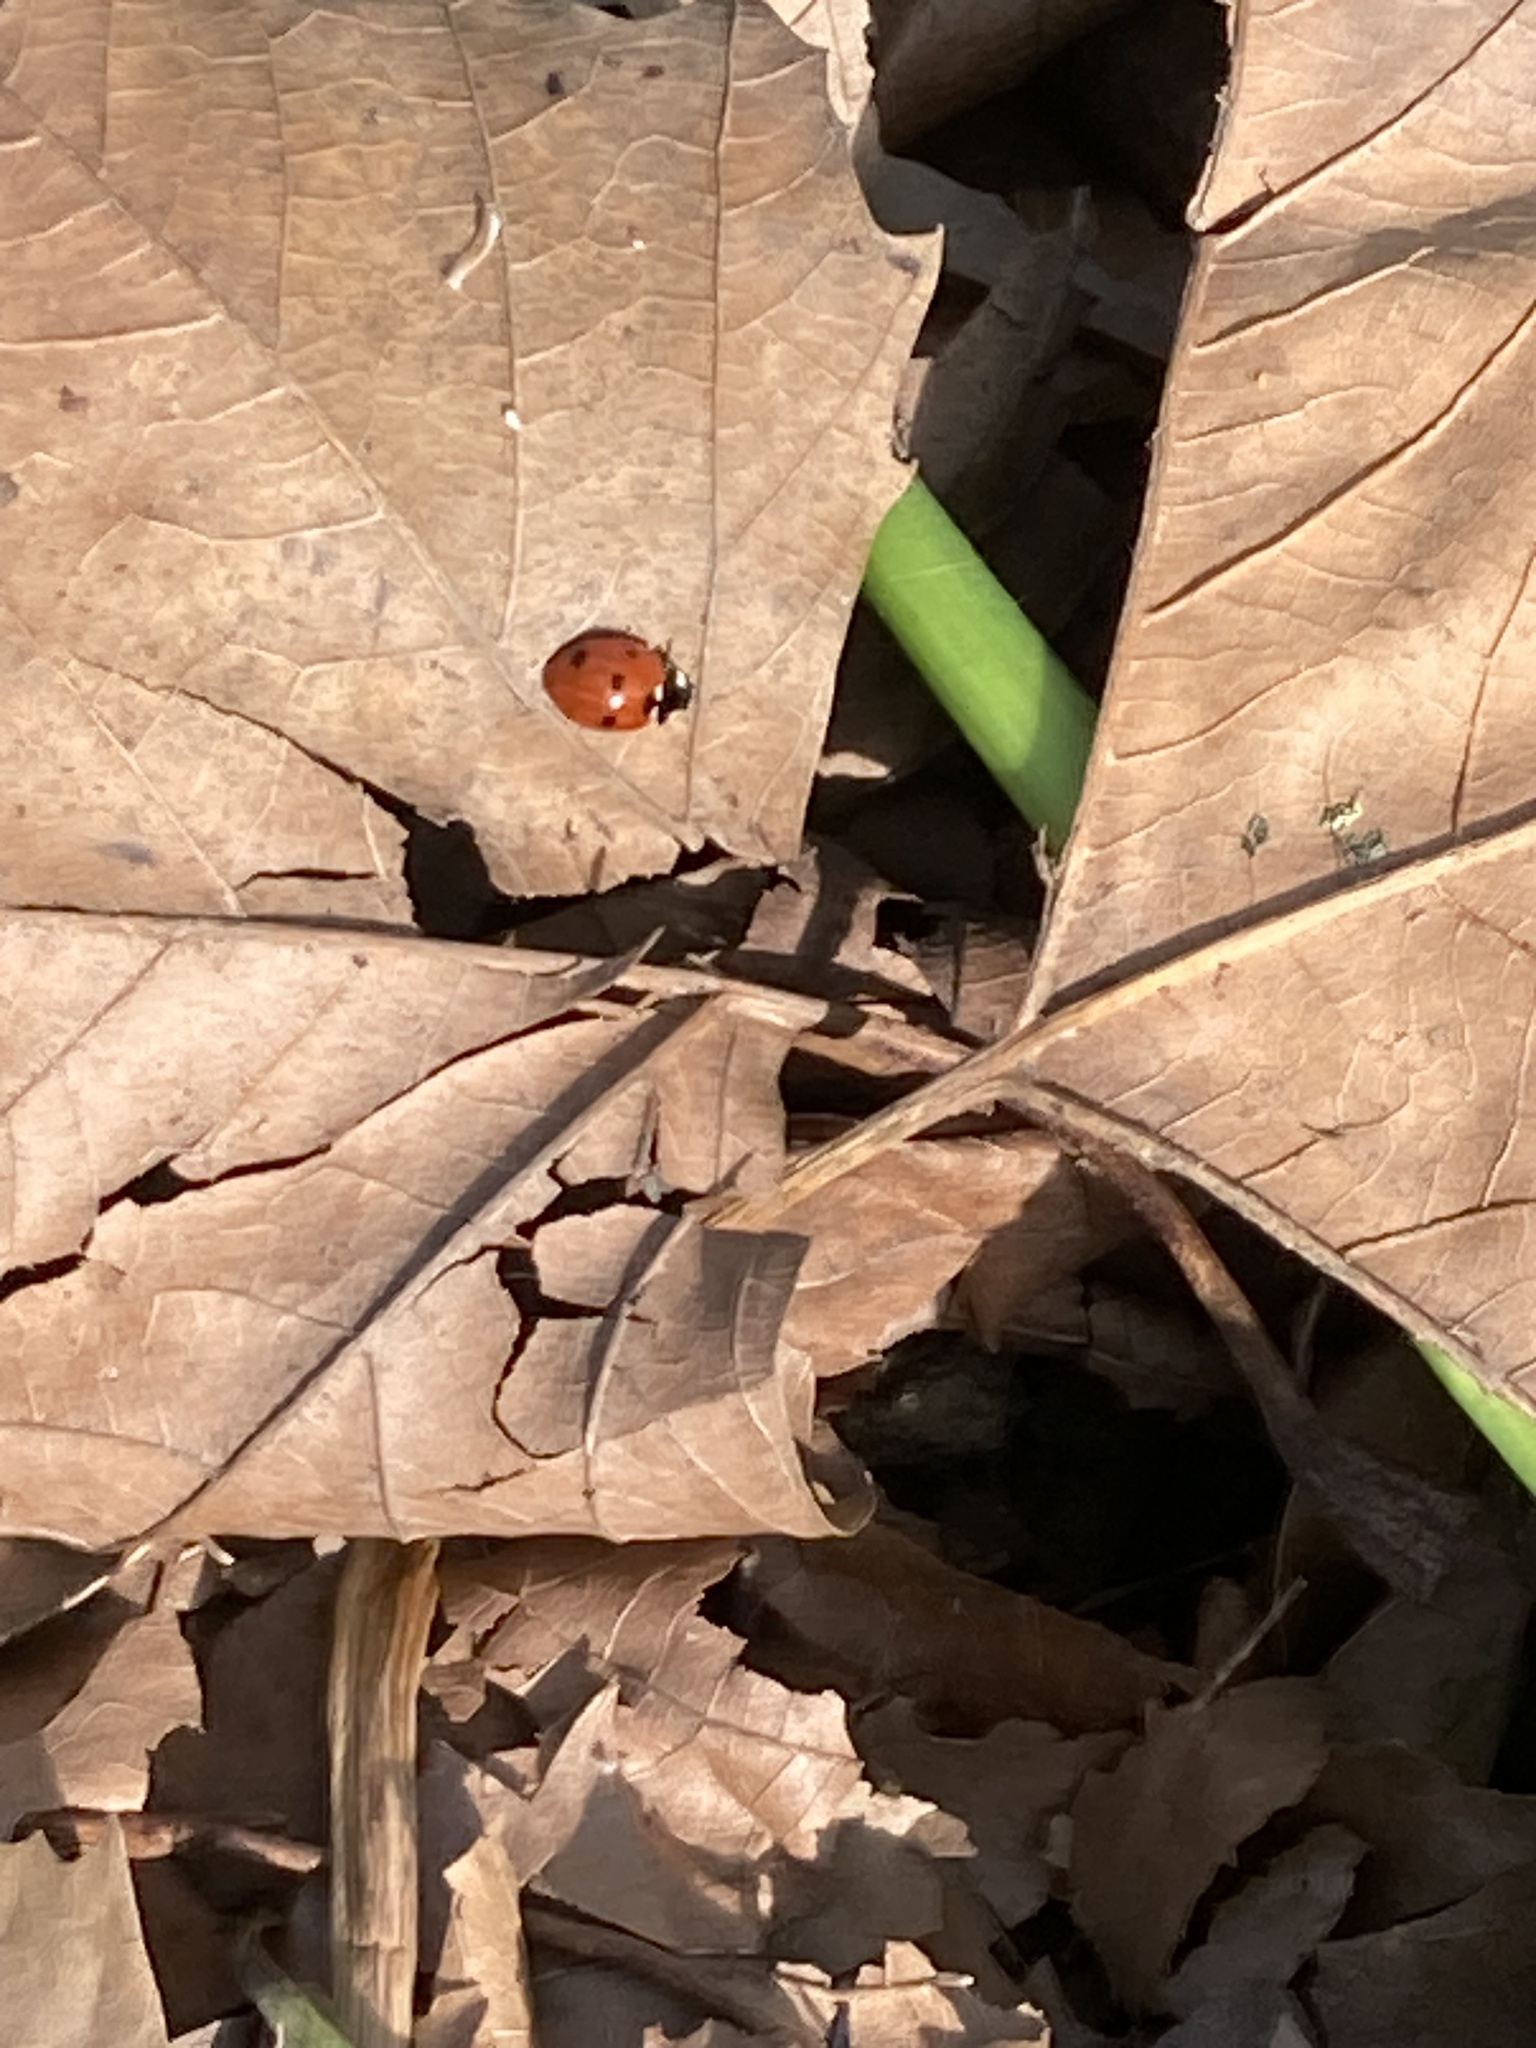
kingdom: Animalia
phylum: Arthropoda
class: Insecta
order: Coleoptera
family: Coccinellidae
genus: Coccinella
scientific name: Coccinella septempunctata
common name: Sevenspotted lady beetle
